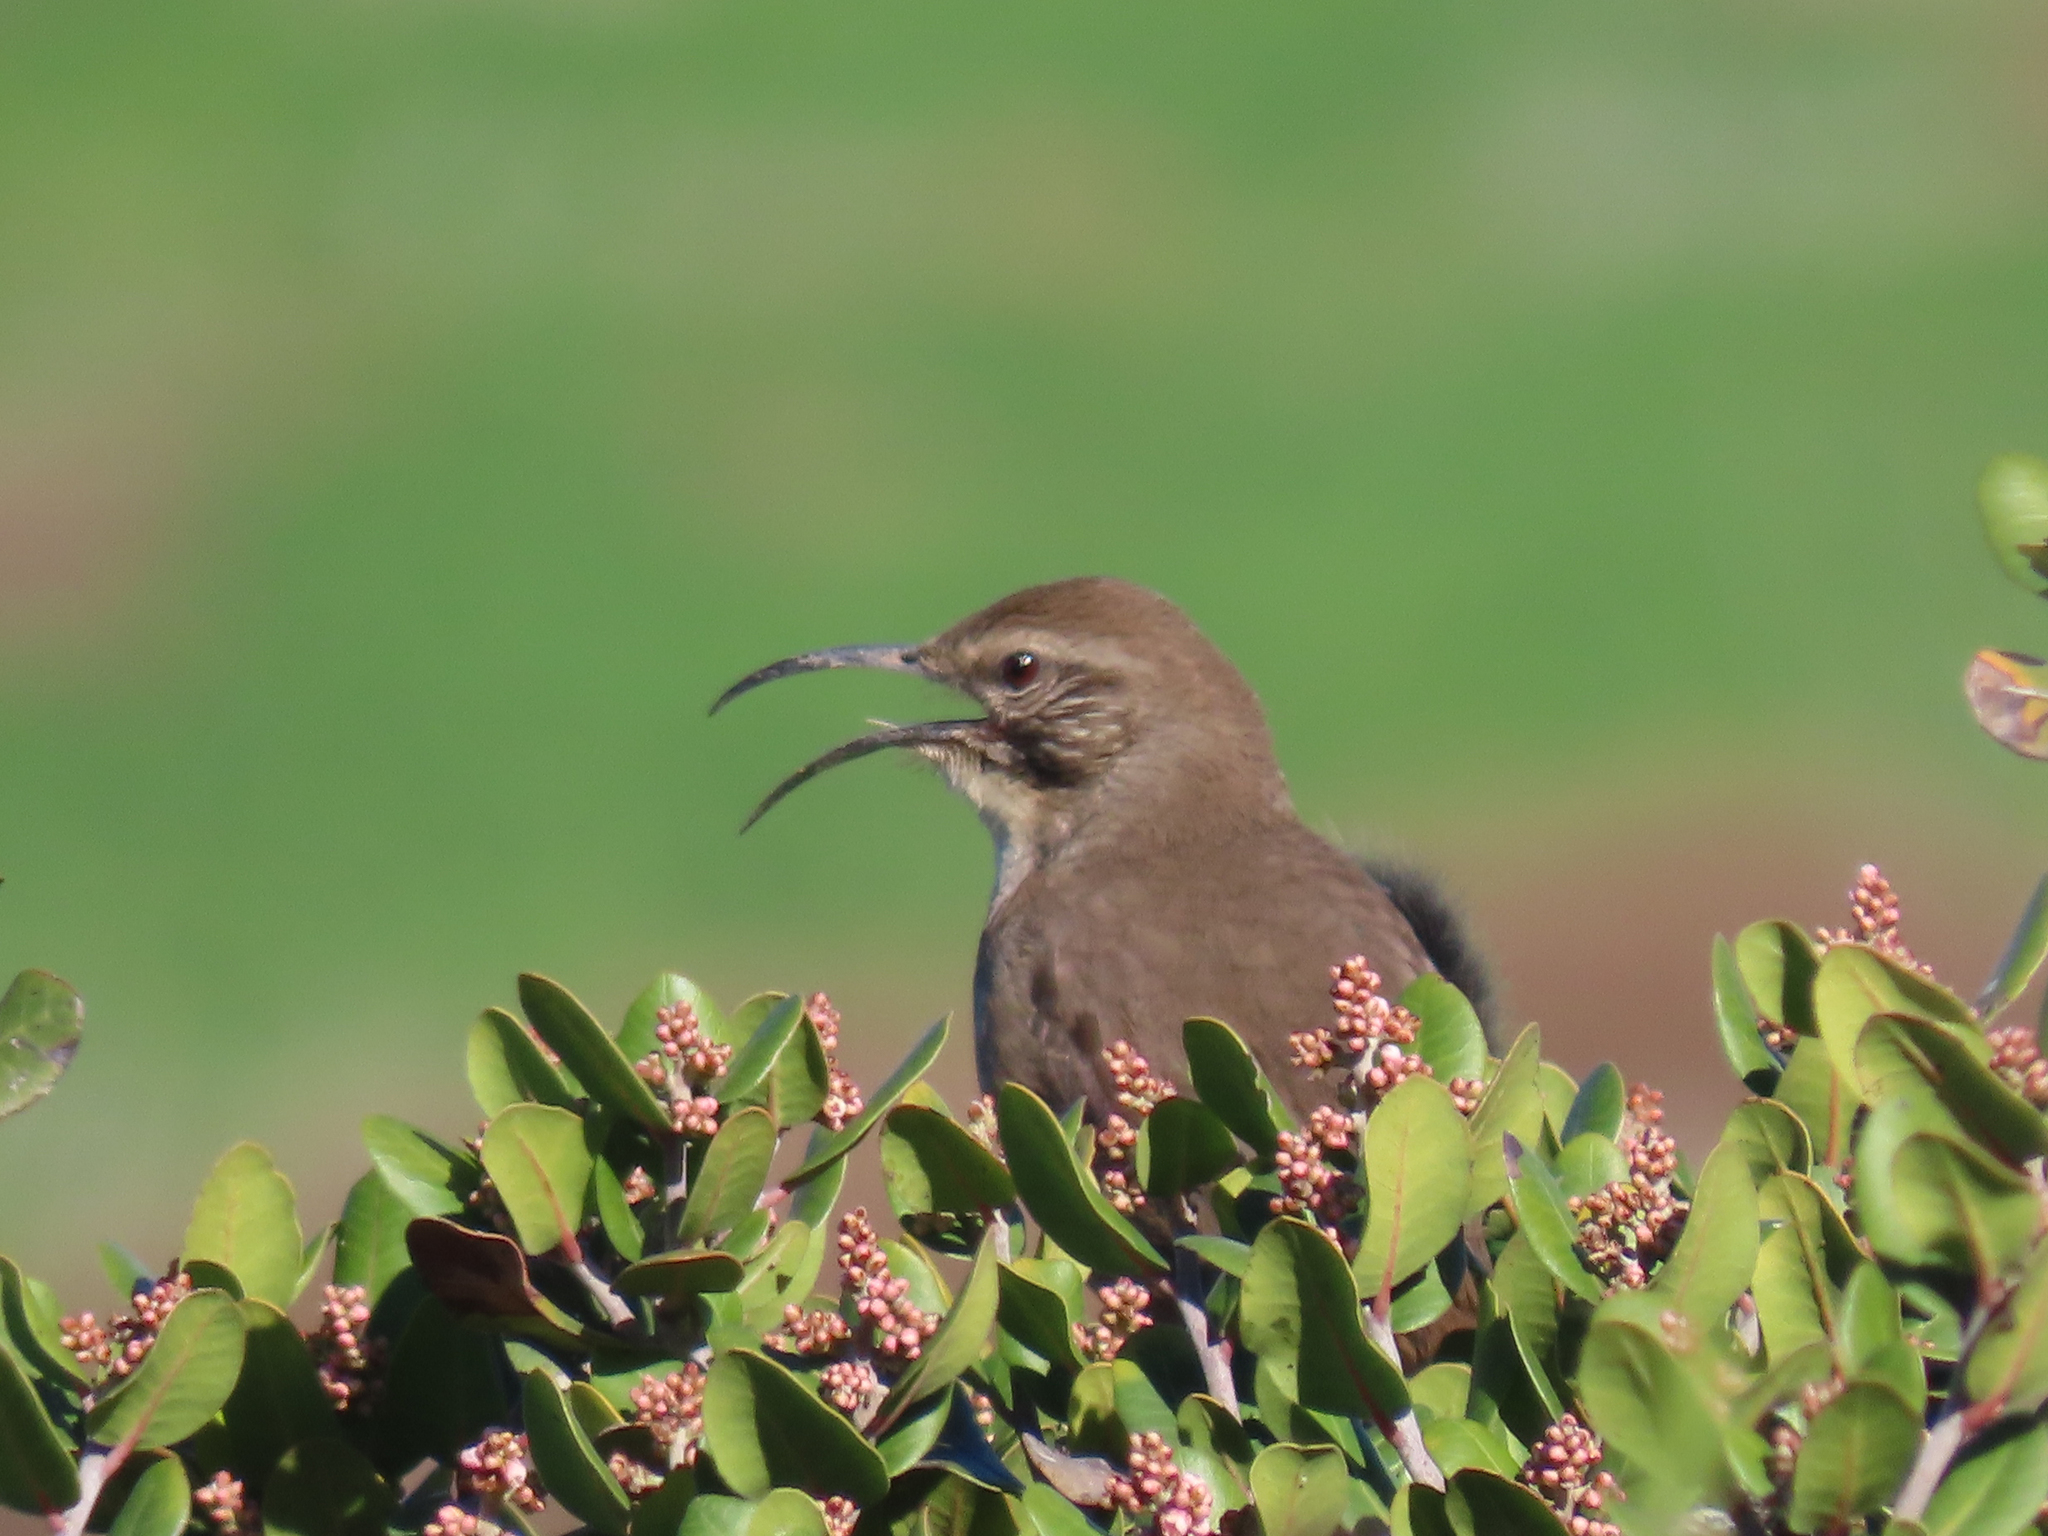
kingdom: Animalia
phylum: Chordata
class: Aves
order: Passeriformes
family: Mimidae
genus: Toxostoma
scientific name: Toxostoma redivivum
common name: California thrasher
